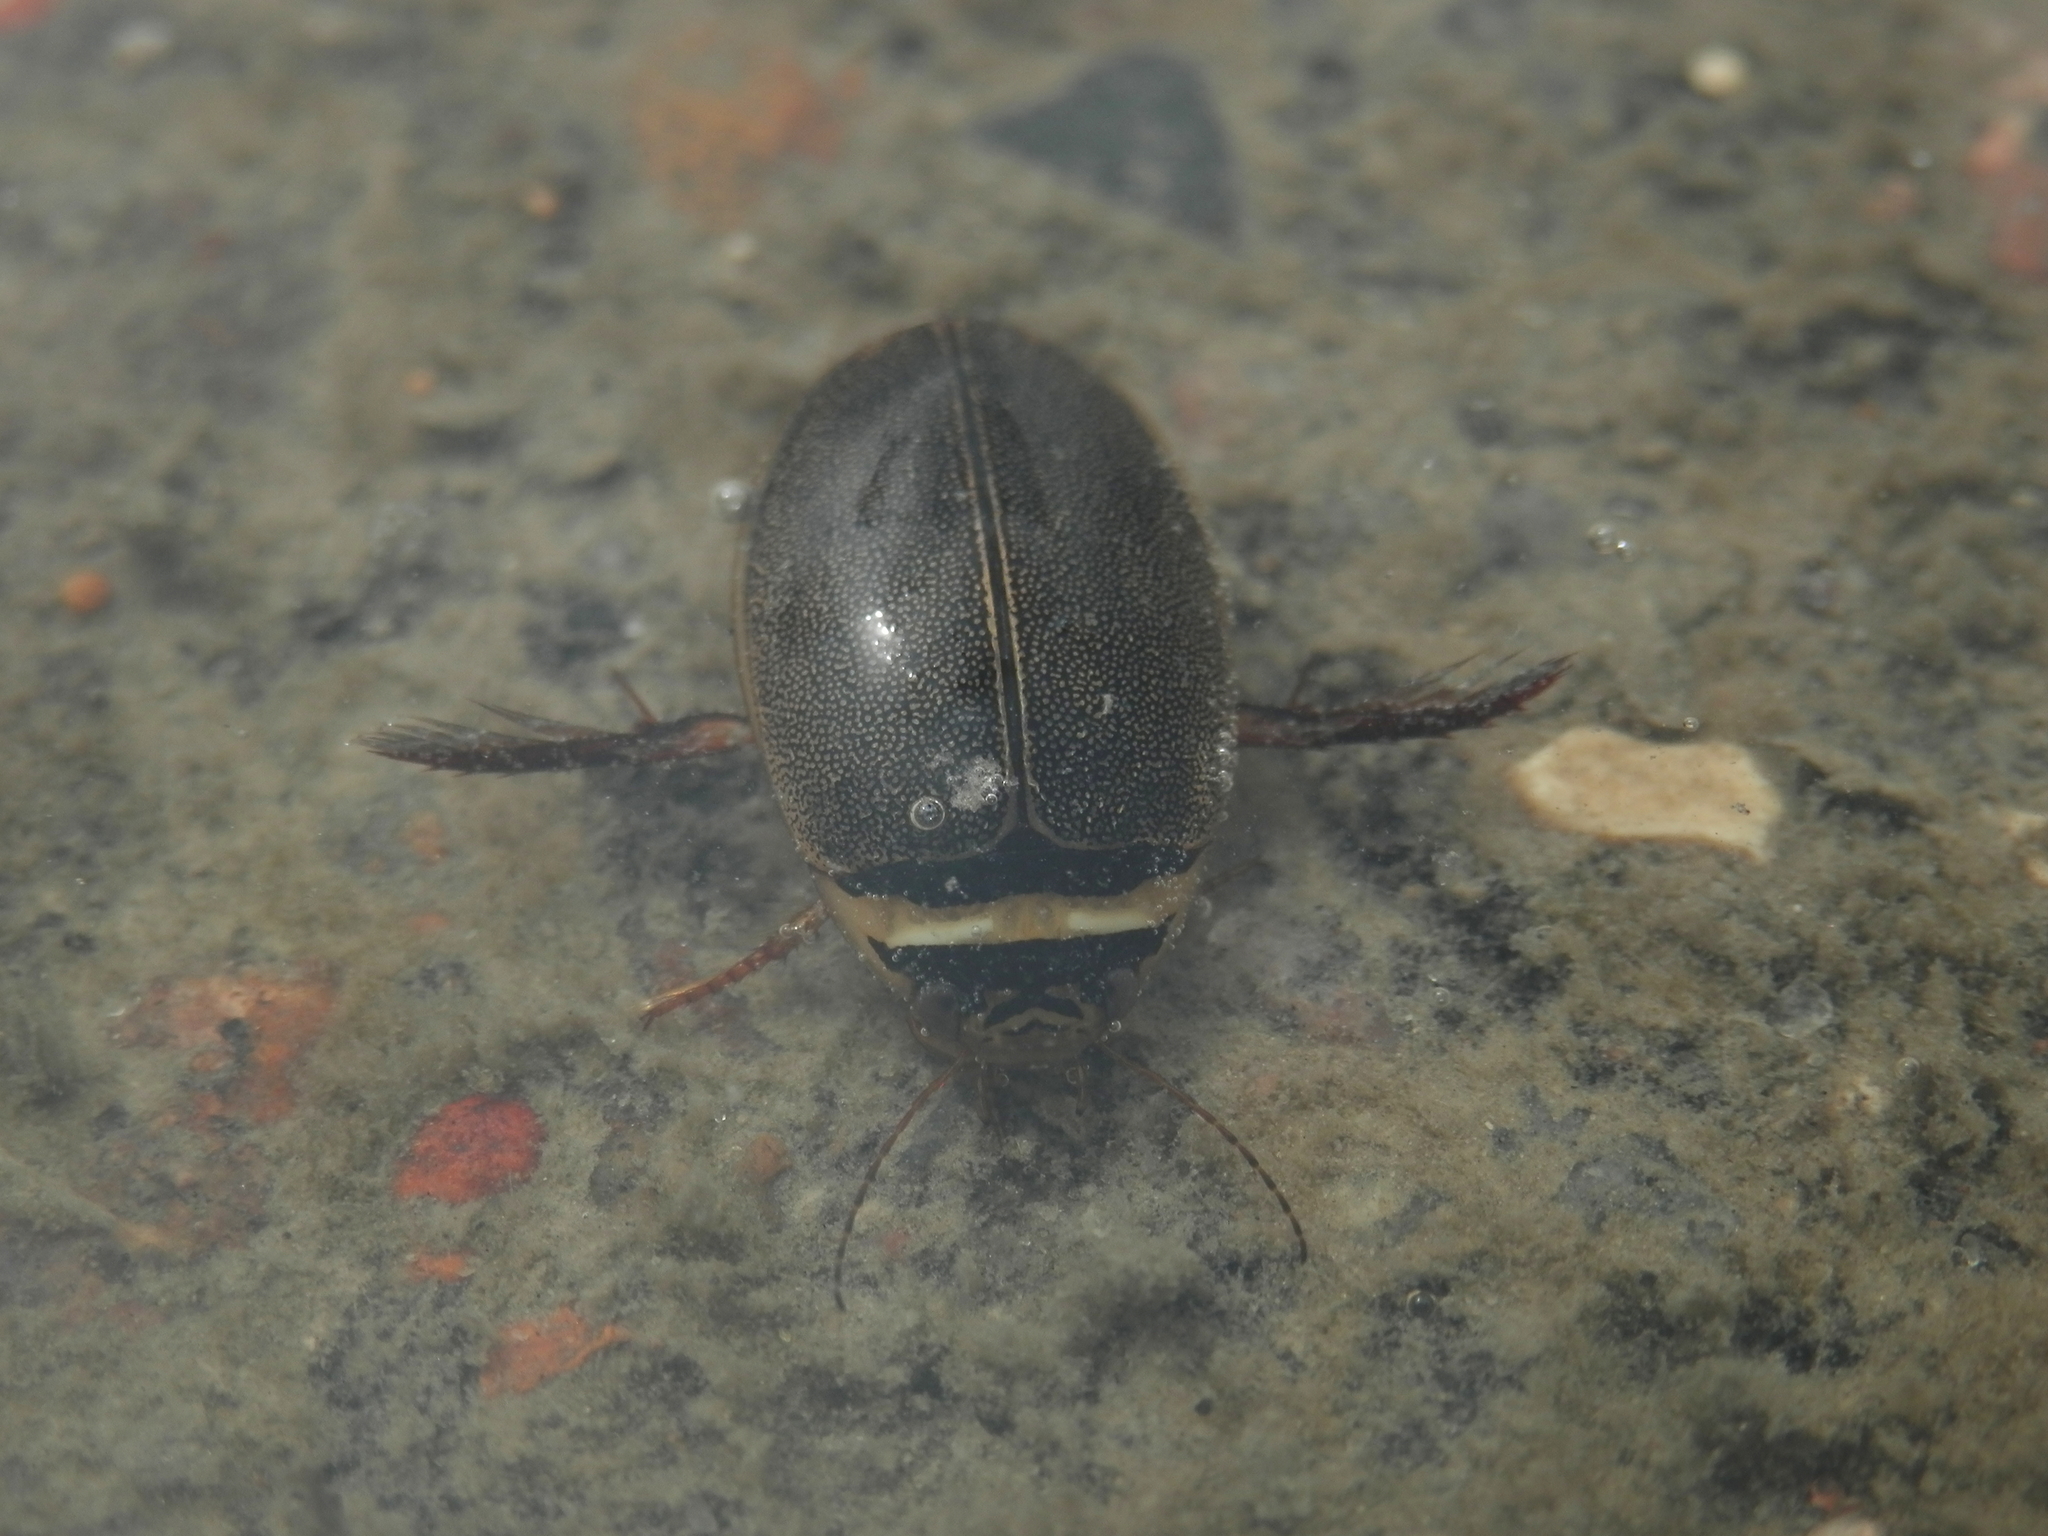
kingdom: Animalia
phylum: Arthropoda
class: Insecta
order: Coleoptera
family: Dytiscidae
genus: Graphoderus
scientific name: Graphoderus occidentalis
